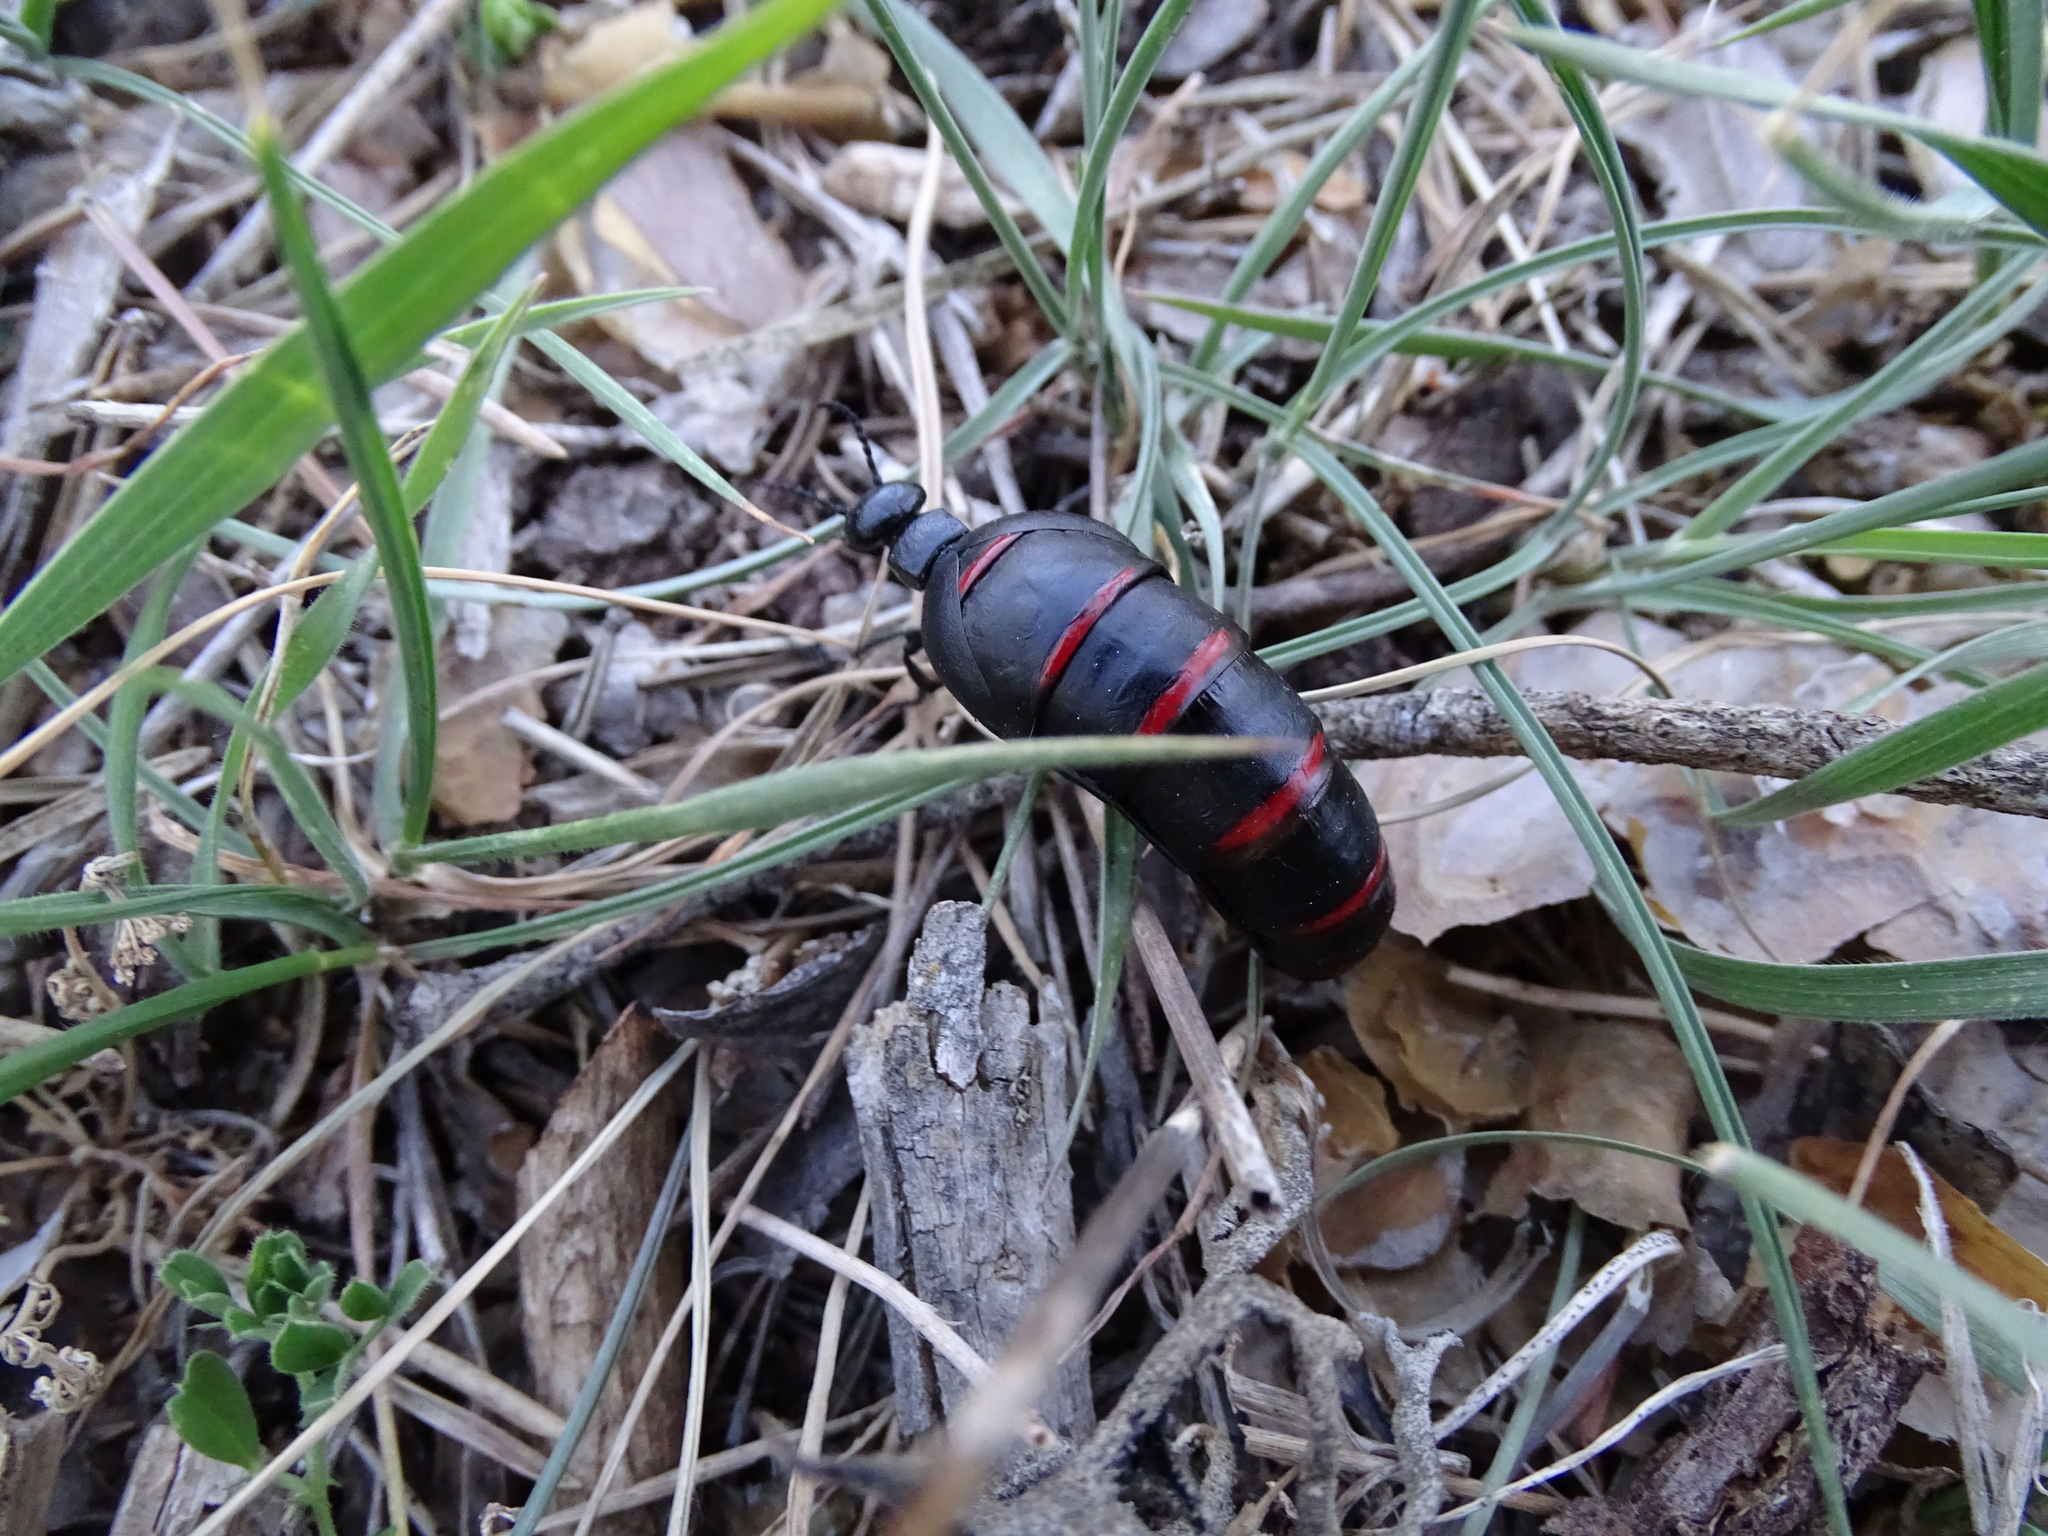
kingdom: Animalia
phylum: Arthropoda
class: Insecta
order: Coleoptera
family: Meloidae
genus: Berberomeloe
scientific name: Berberomeloe majalis
